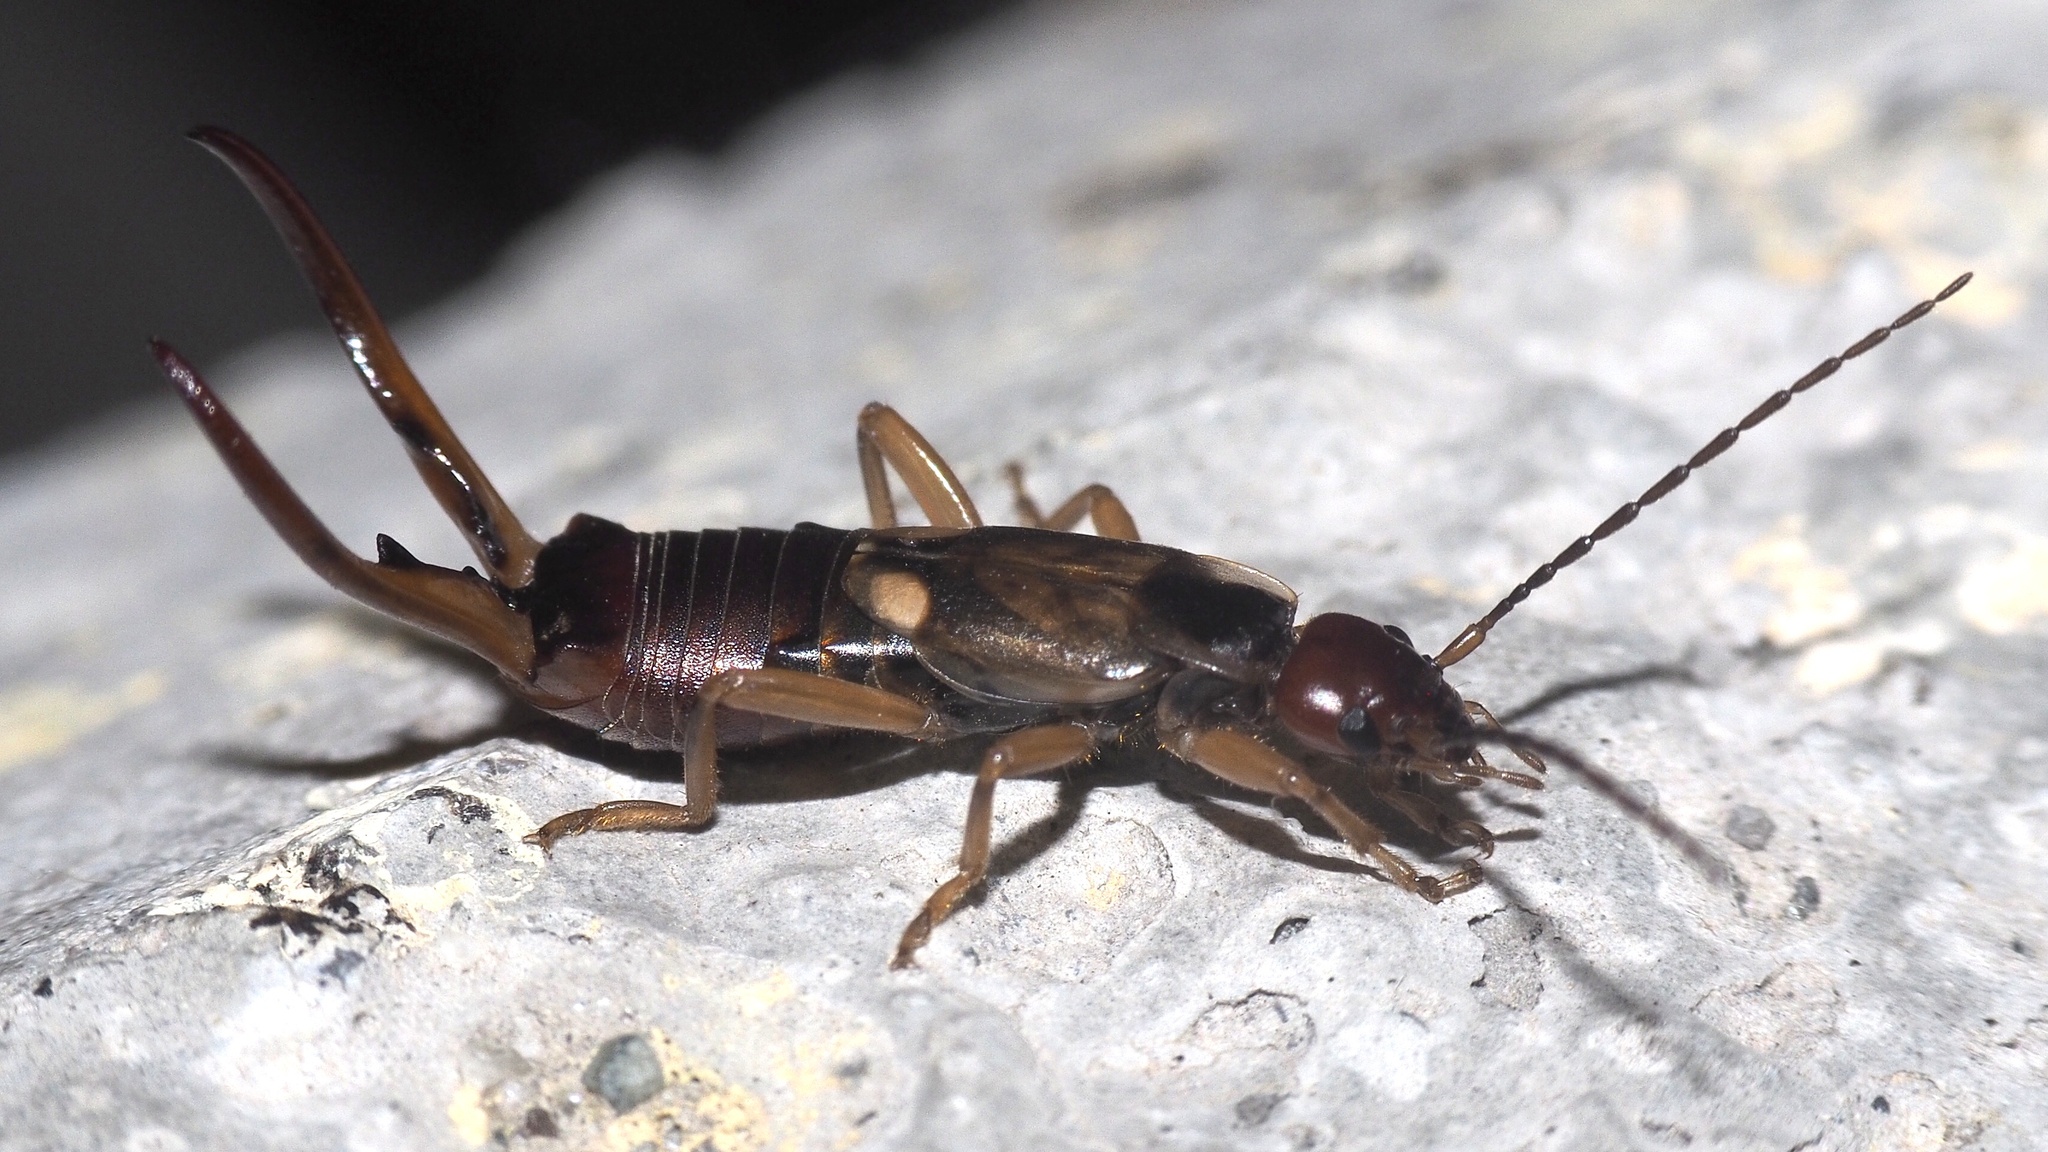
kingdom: Animalia
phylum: Arthropoda
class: Insecta
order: Dermaptera
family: Forficulidae
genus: Forficula
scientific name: Forficula
